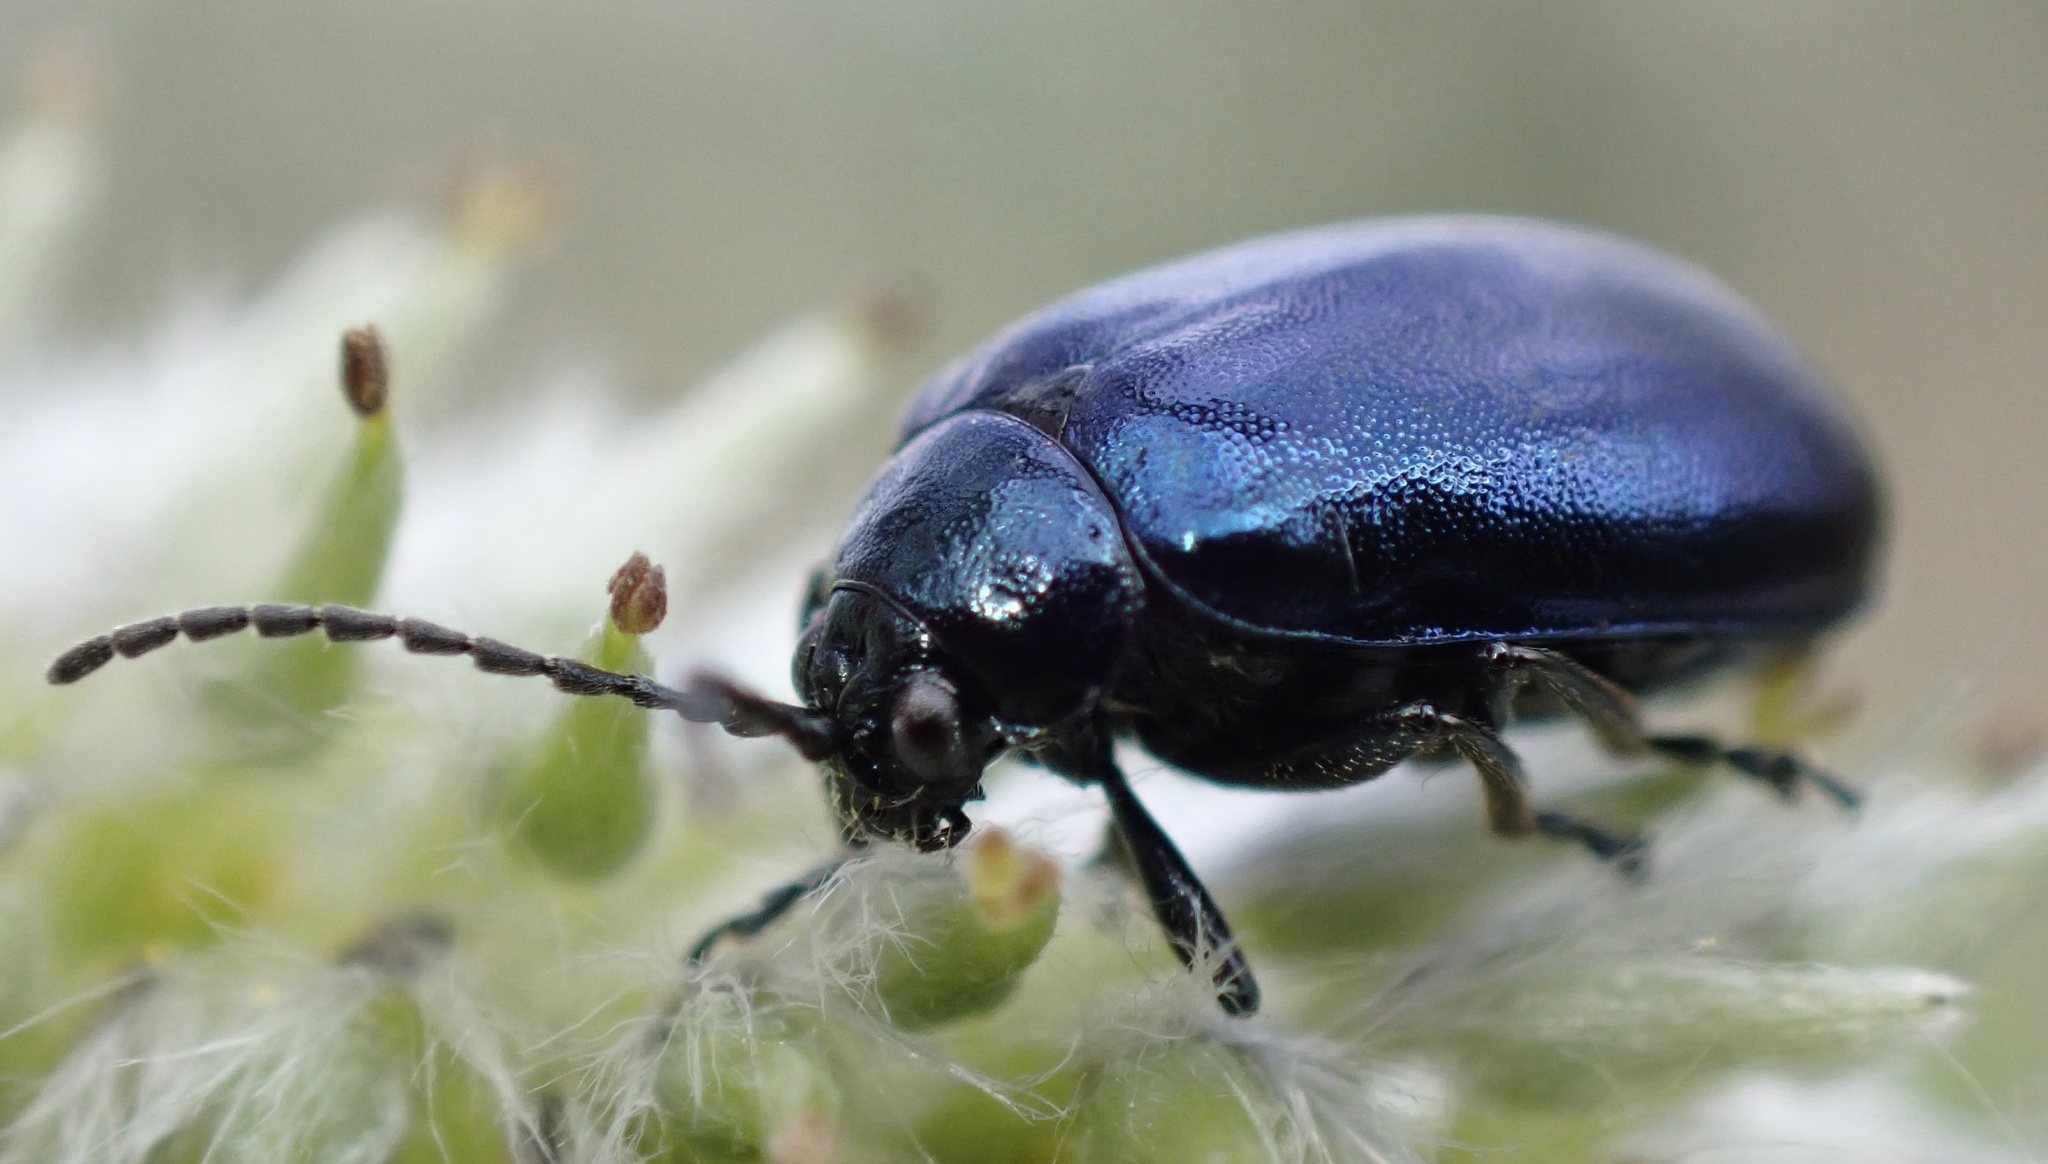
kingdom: Animalia
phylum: Arthropoda
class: Insecta
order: Coleoptera
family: Chrysomelidae
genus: Agelastica
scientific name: Agelastica alni
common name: Alder leaf beetle
